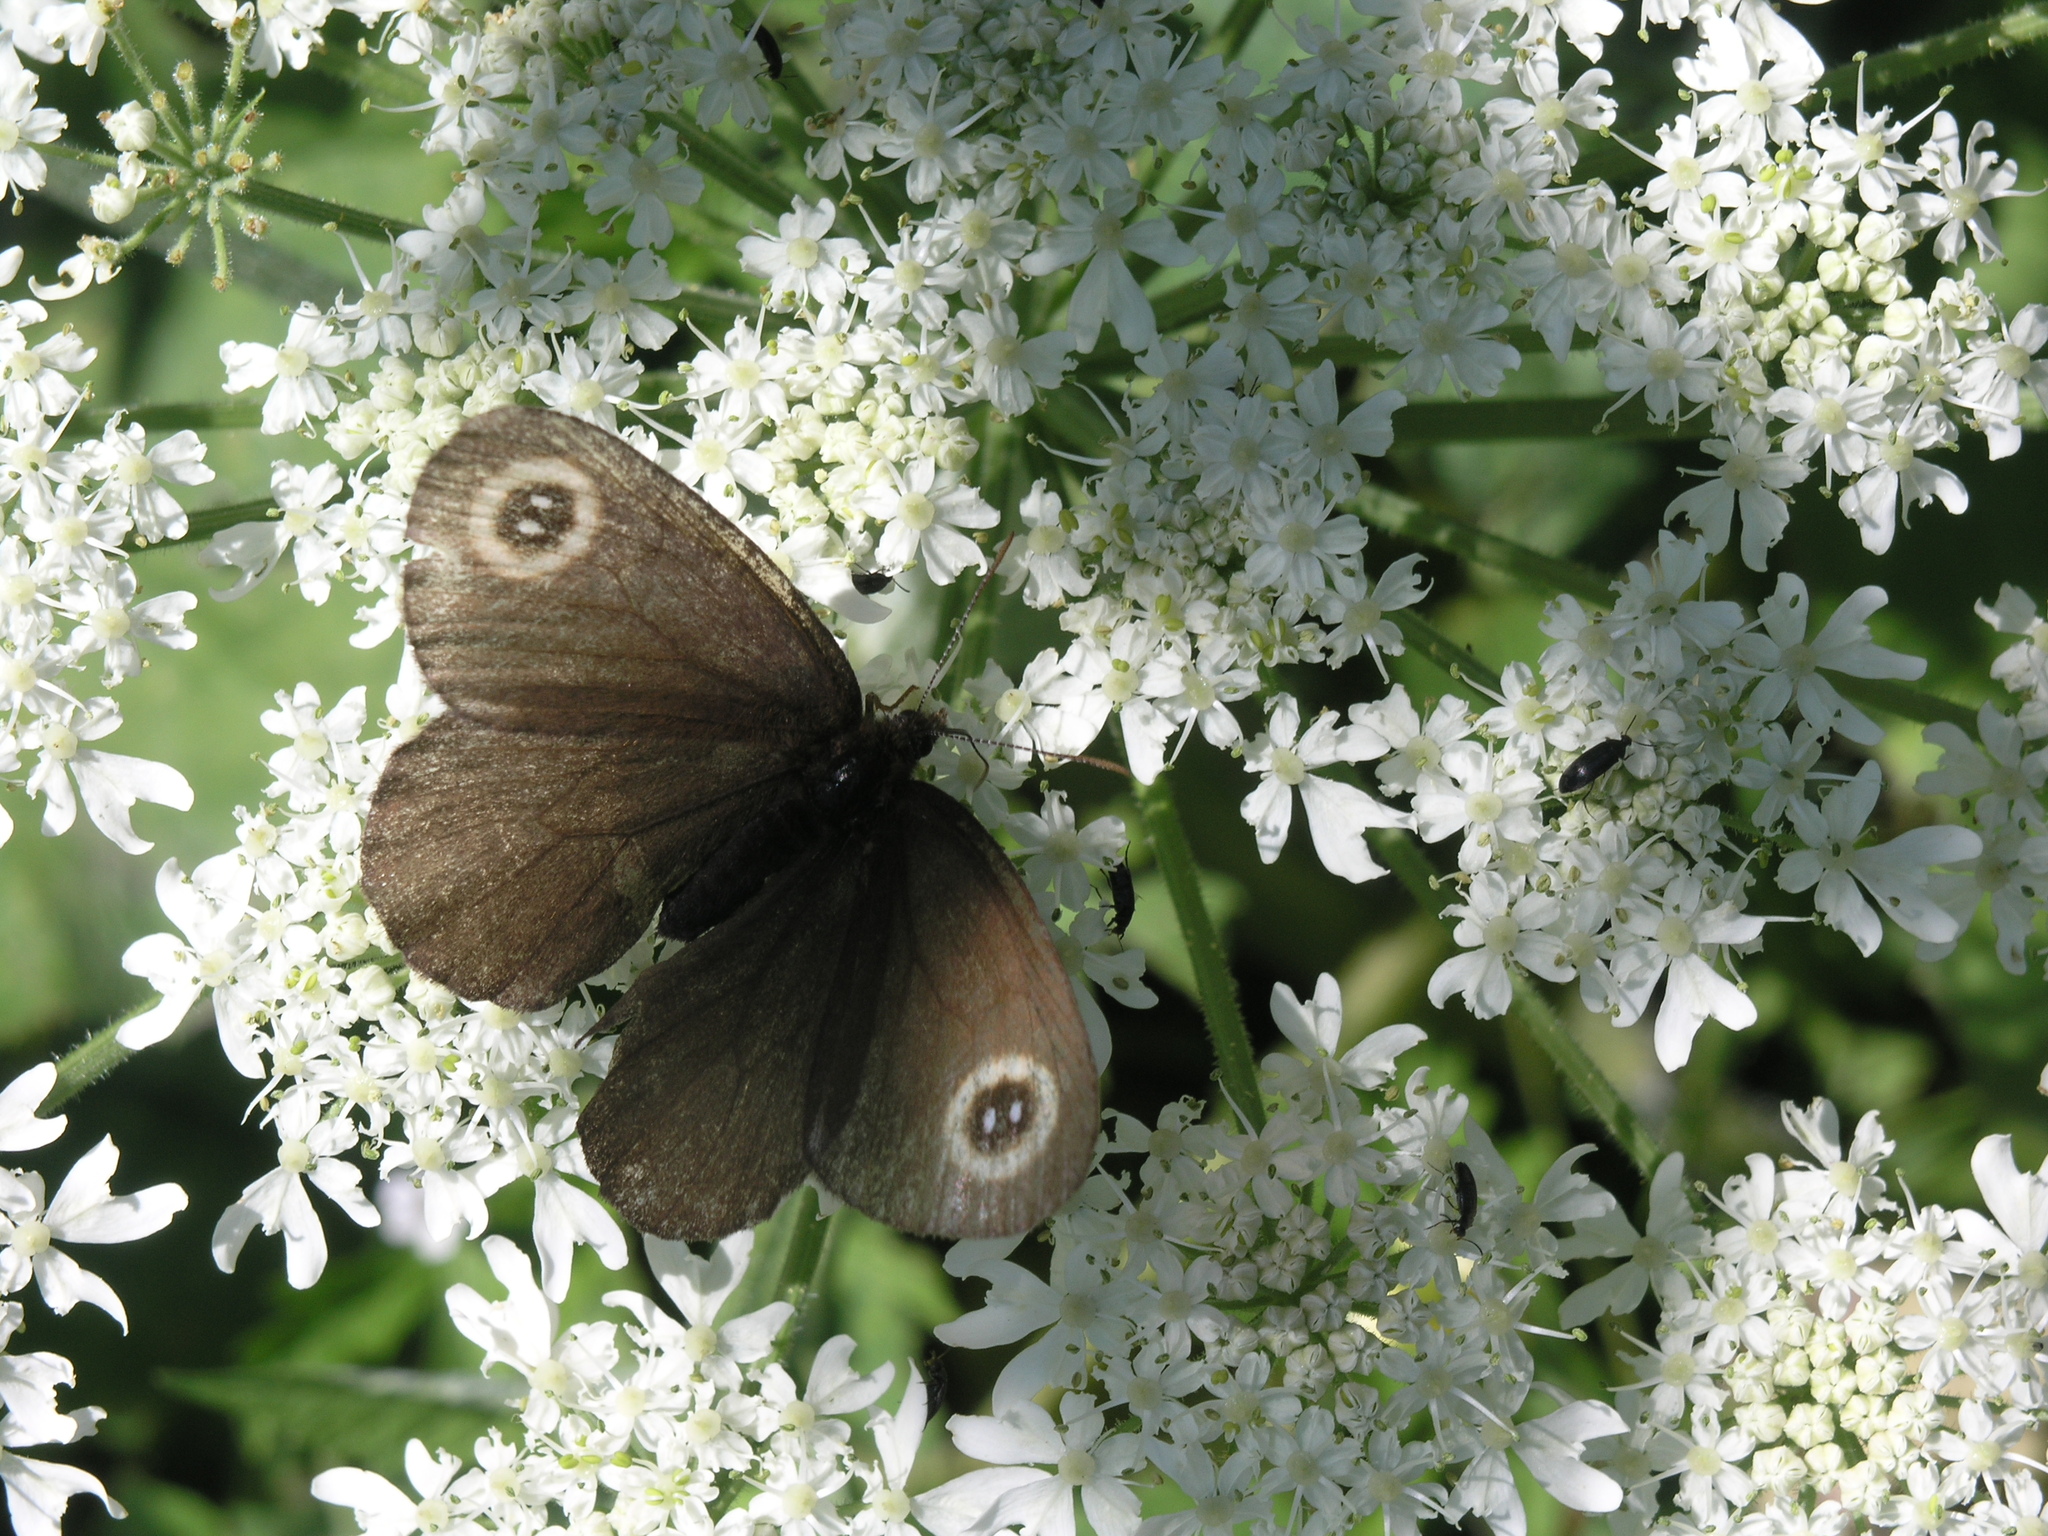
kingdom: Animalia
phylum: Arthropoda
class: Insecta
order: Lepidoptera
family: Nymphalidae
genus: Erebia
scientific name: Erebia cyclopius
